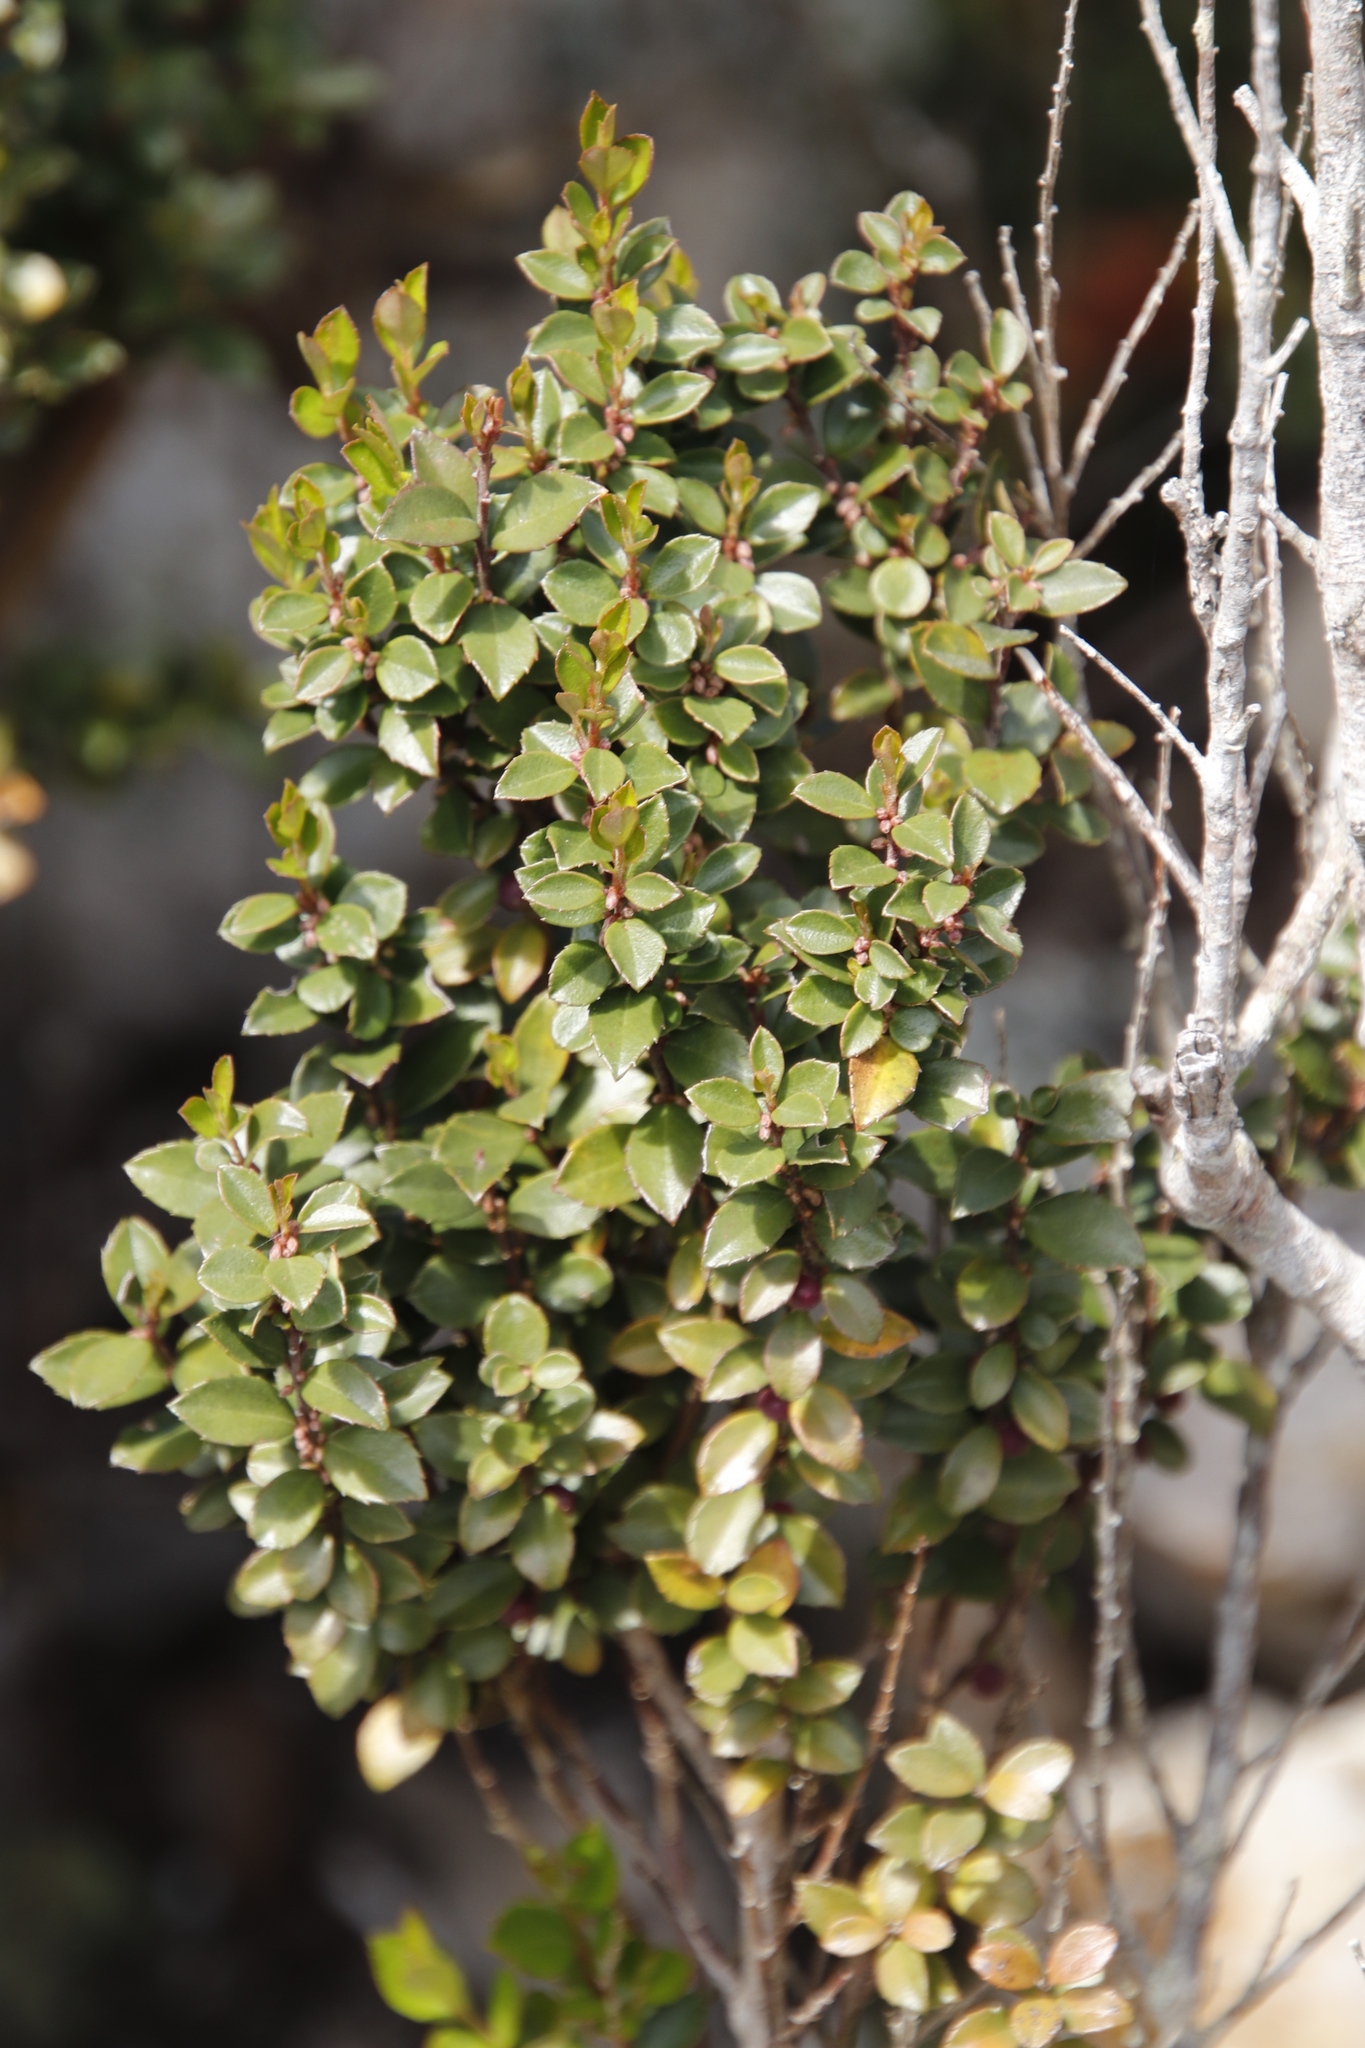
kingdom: Plantae
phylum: Tracheophyta
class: Magnoliopsida
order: Ericales
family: Primulaceae
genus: Myrsine
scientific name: Myrsine africana
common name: African-boxwood
